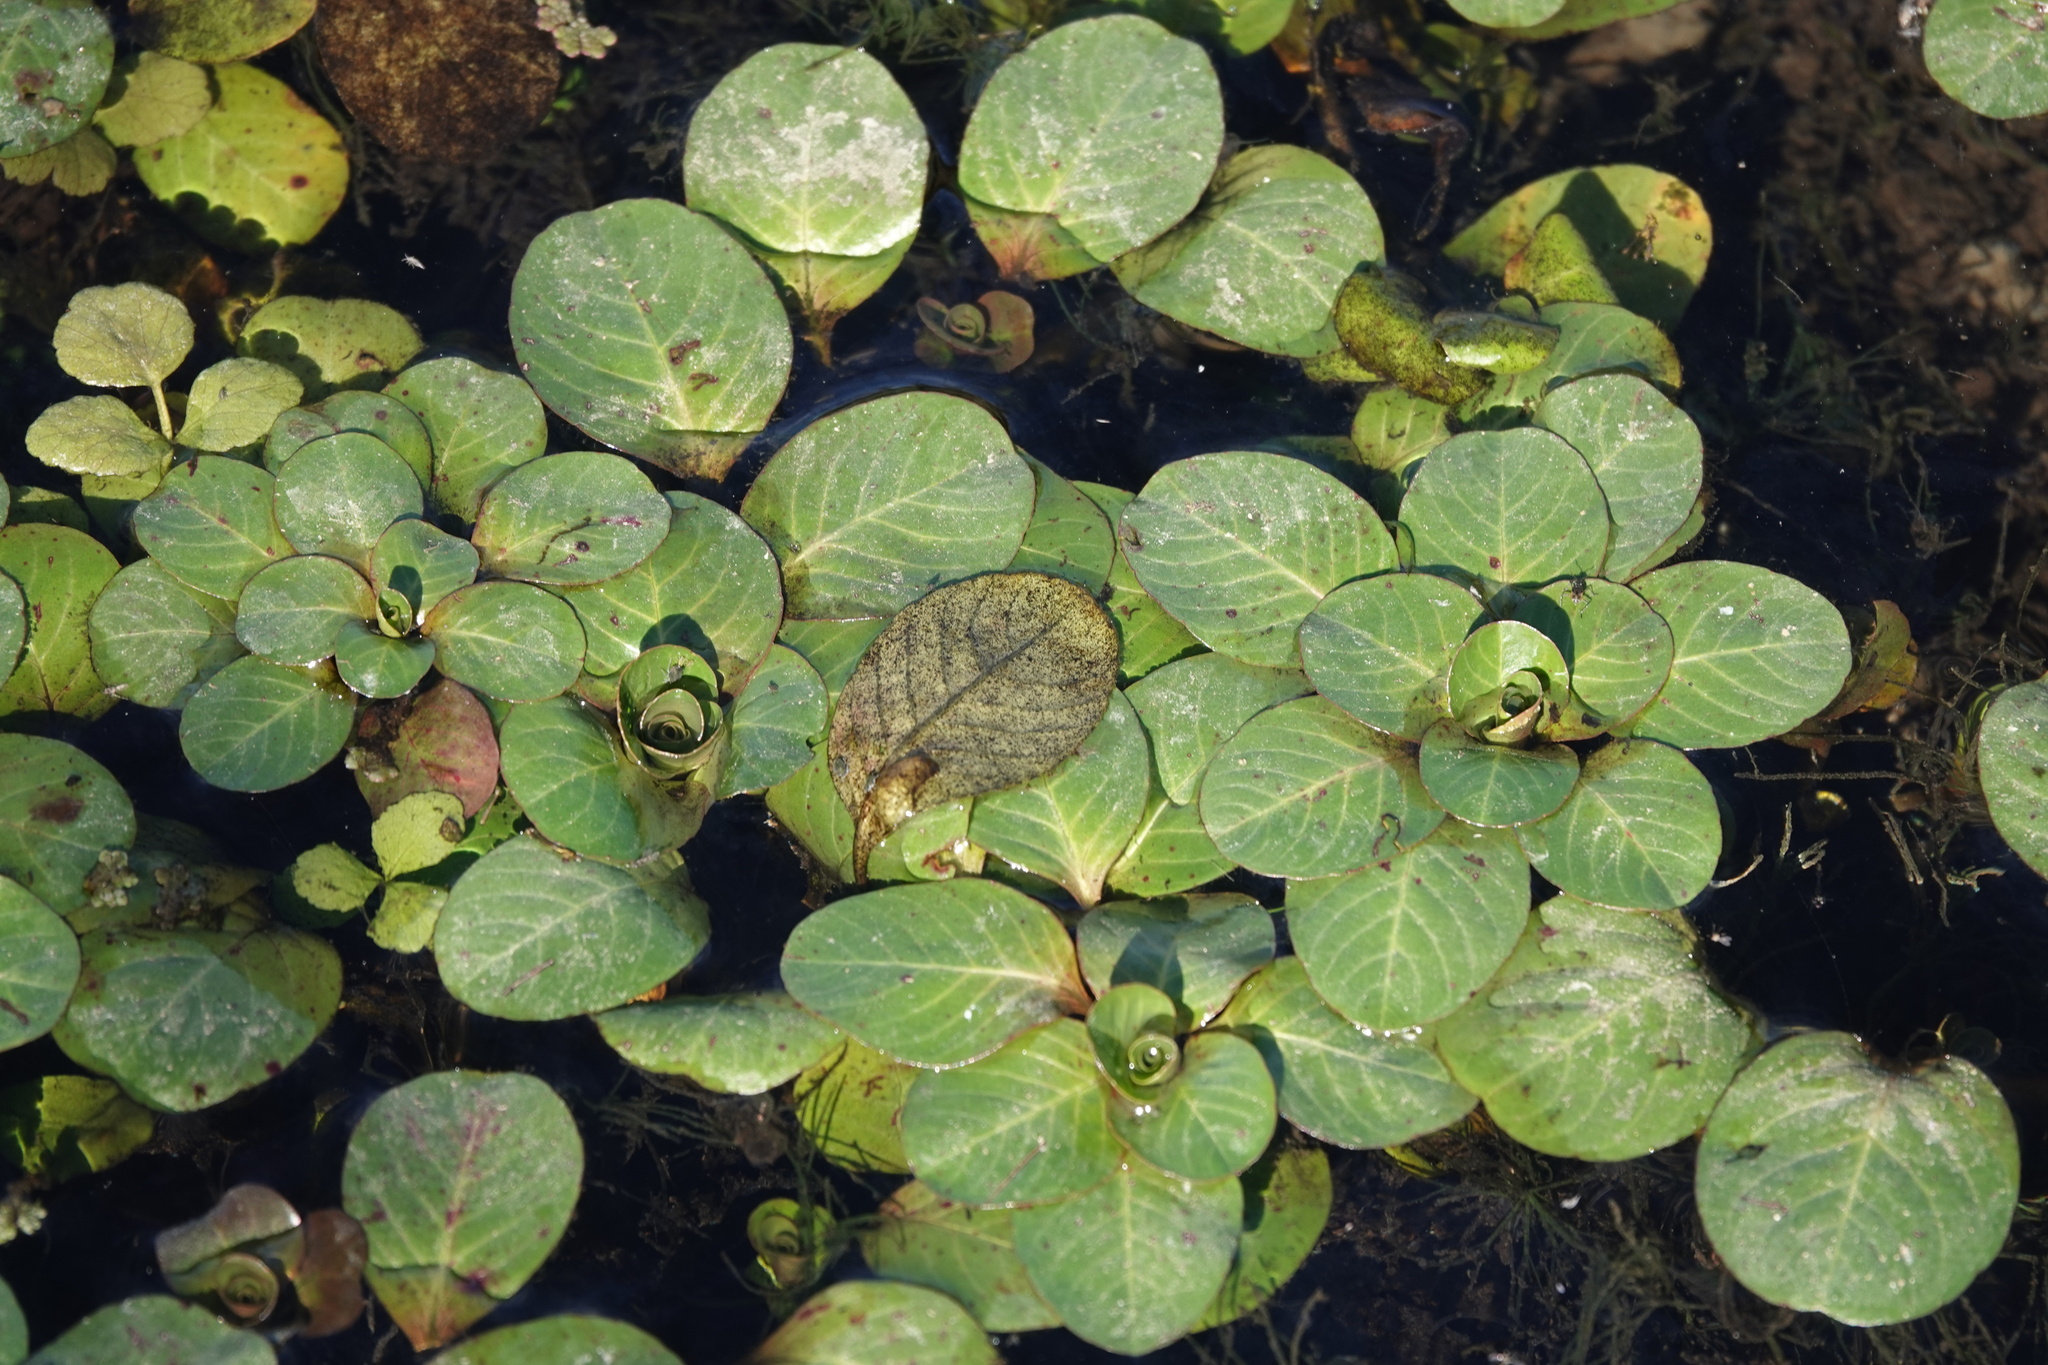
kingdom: Plantae
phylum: Tracheophyta
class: Magnoliopsida
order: Myrtales
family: Onagraceae
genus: Ludwigia
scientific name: Ludwigia peploides
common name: Floating primrose-willow
